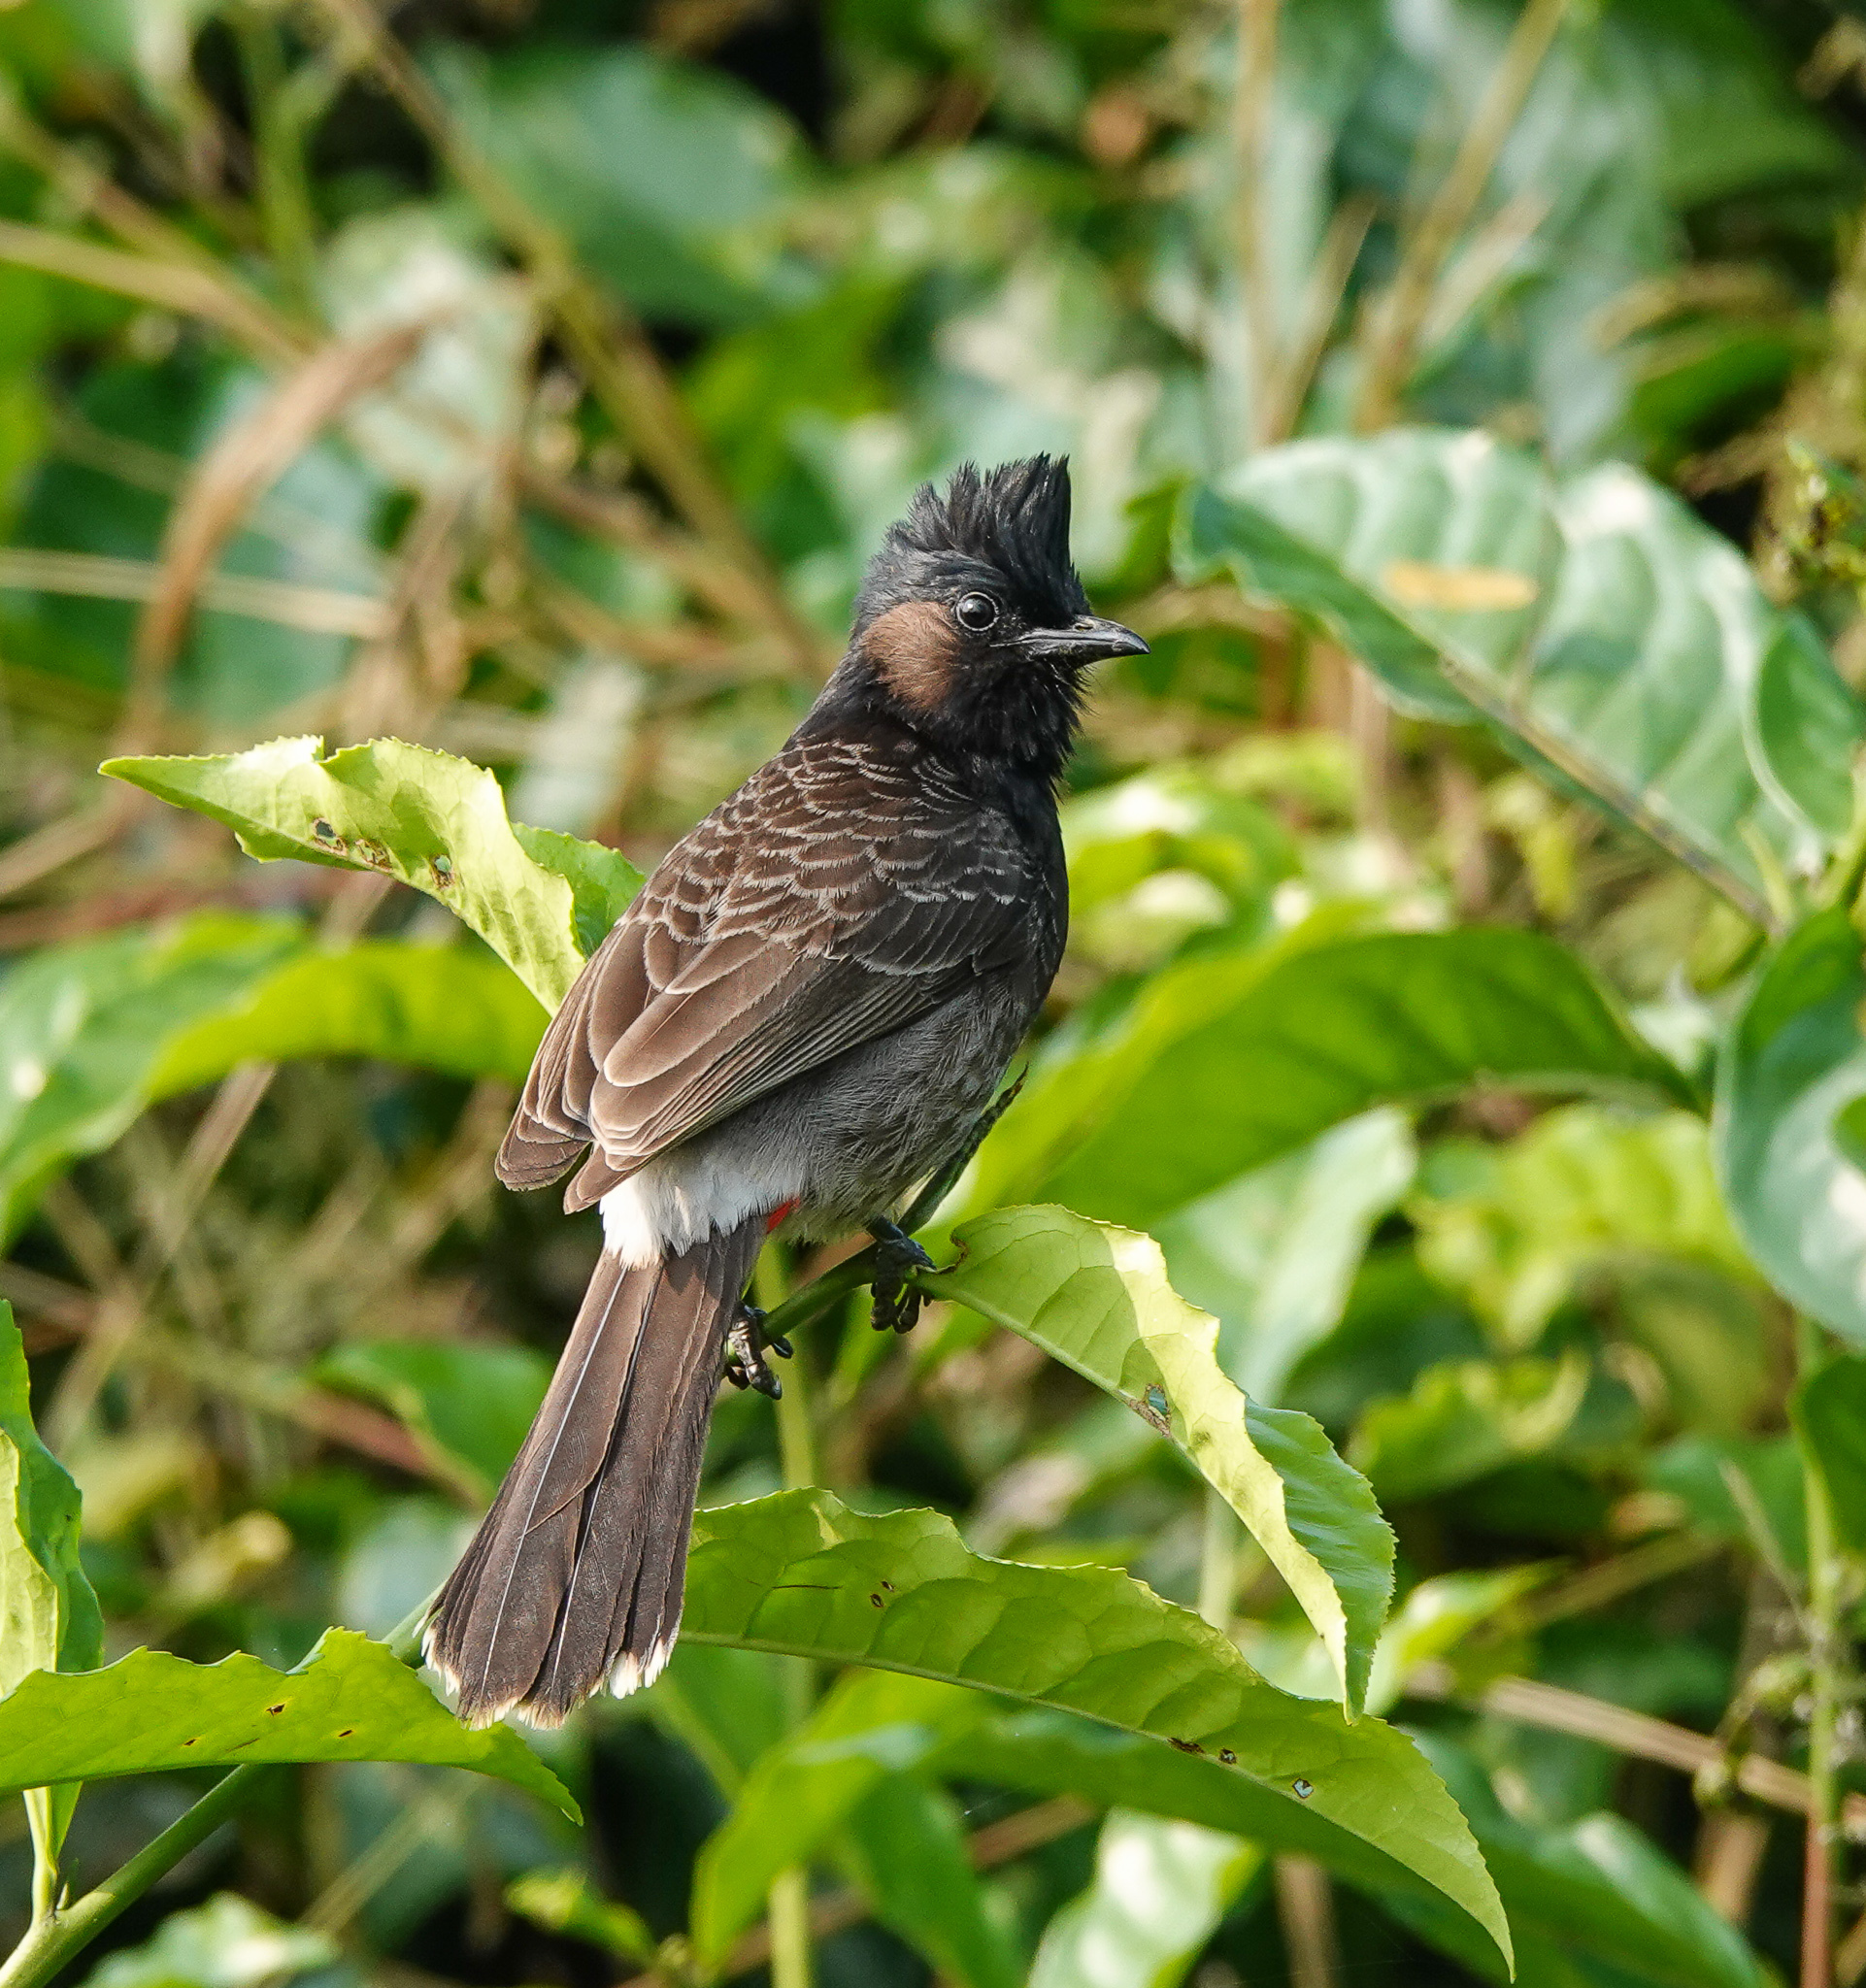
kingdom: Animalia
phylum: Chordata
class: Aves
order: Passeriformes
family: Pycnonotidae
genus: Pycnonotus
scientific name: Pycnonotus cafer
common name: Red-vented bulbul
